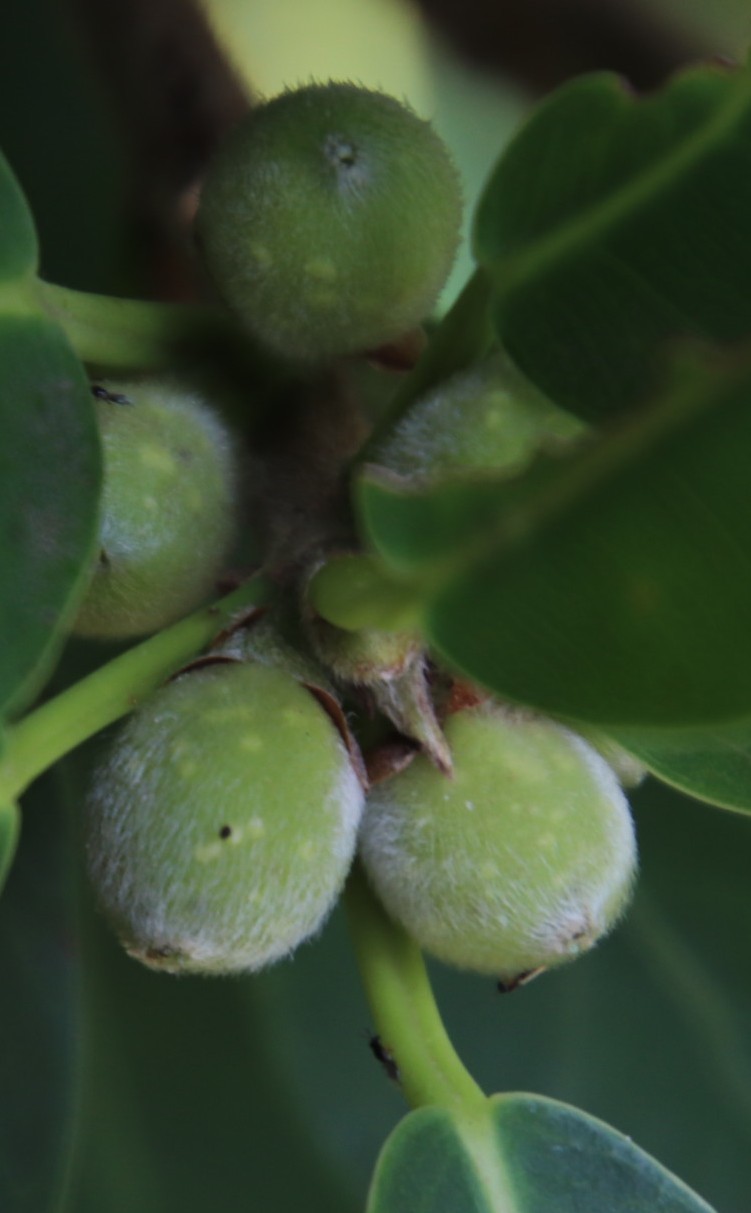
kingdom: Plantae
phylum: Tracheophyta
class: Magnoliopsida
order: Rosales
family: Moraceae
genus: Ficus
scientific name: Ficus thonningii
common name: Fig
